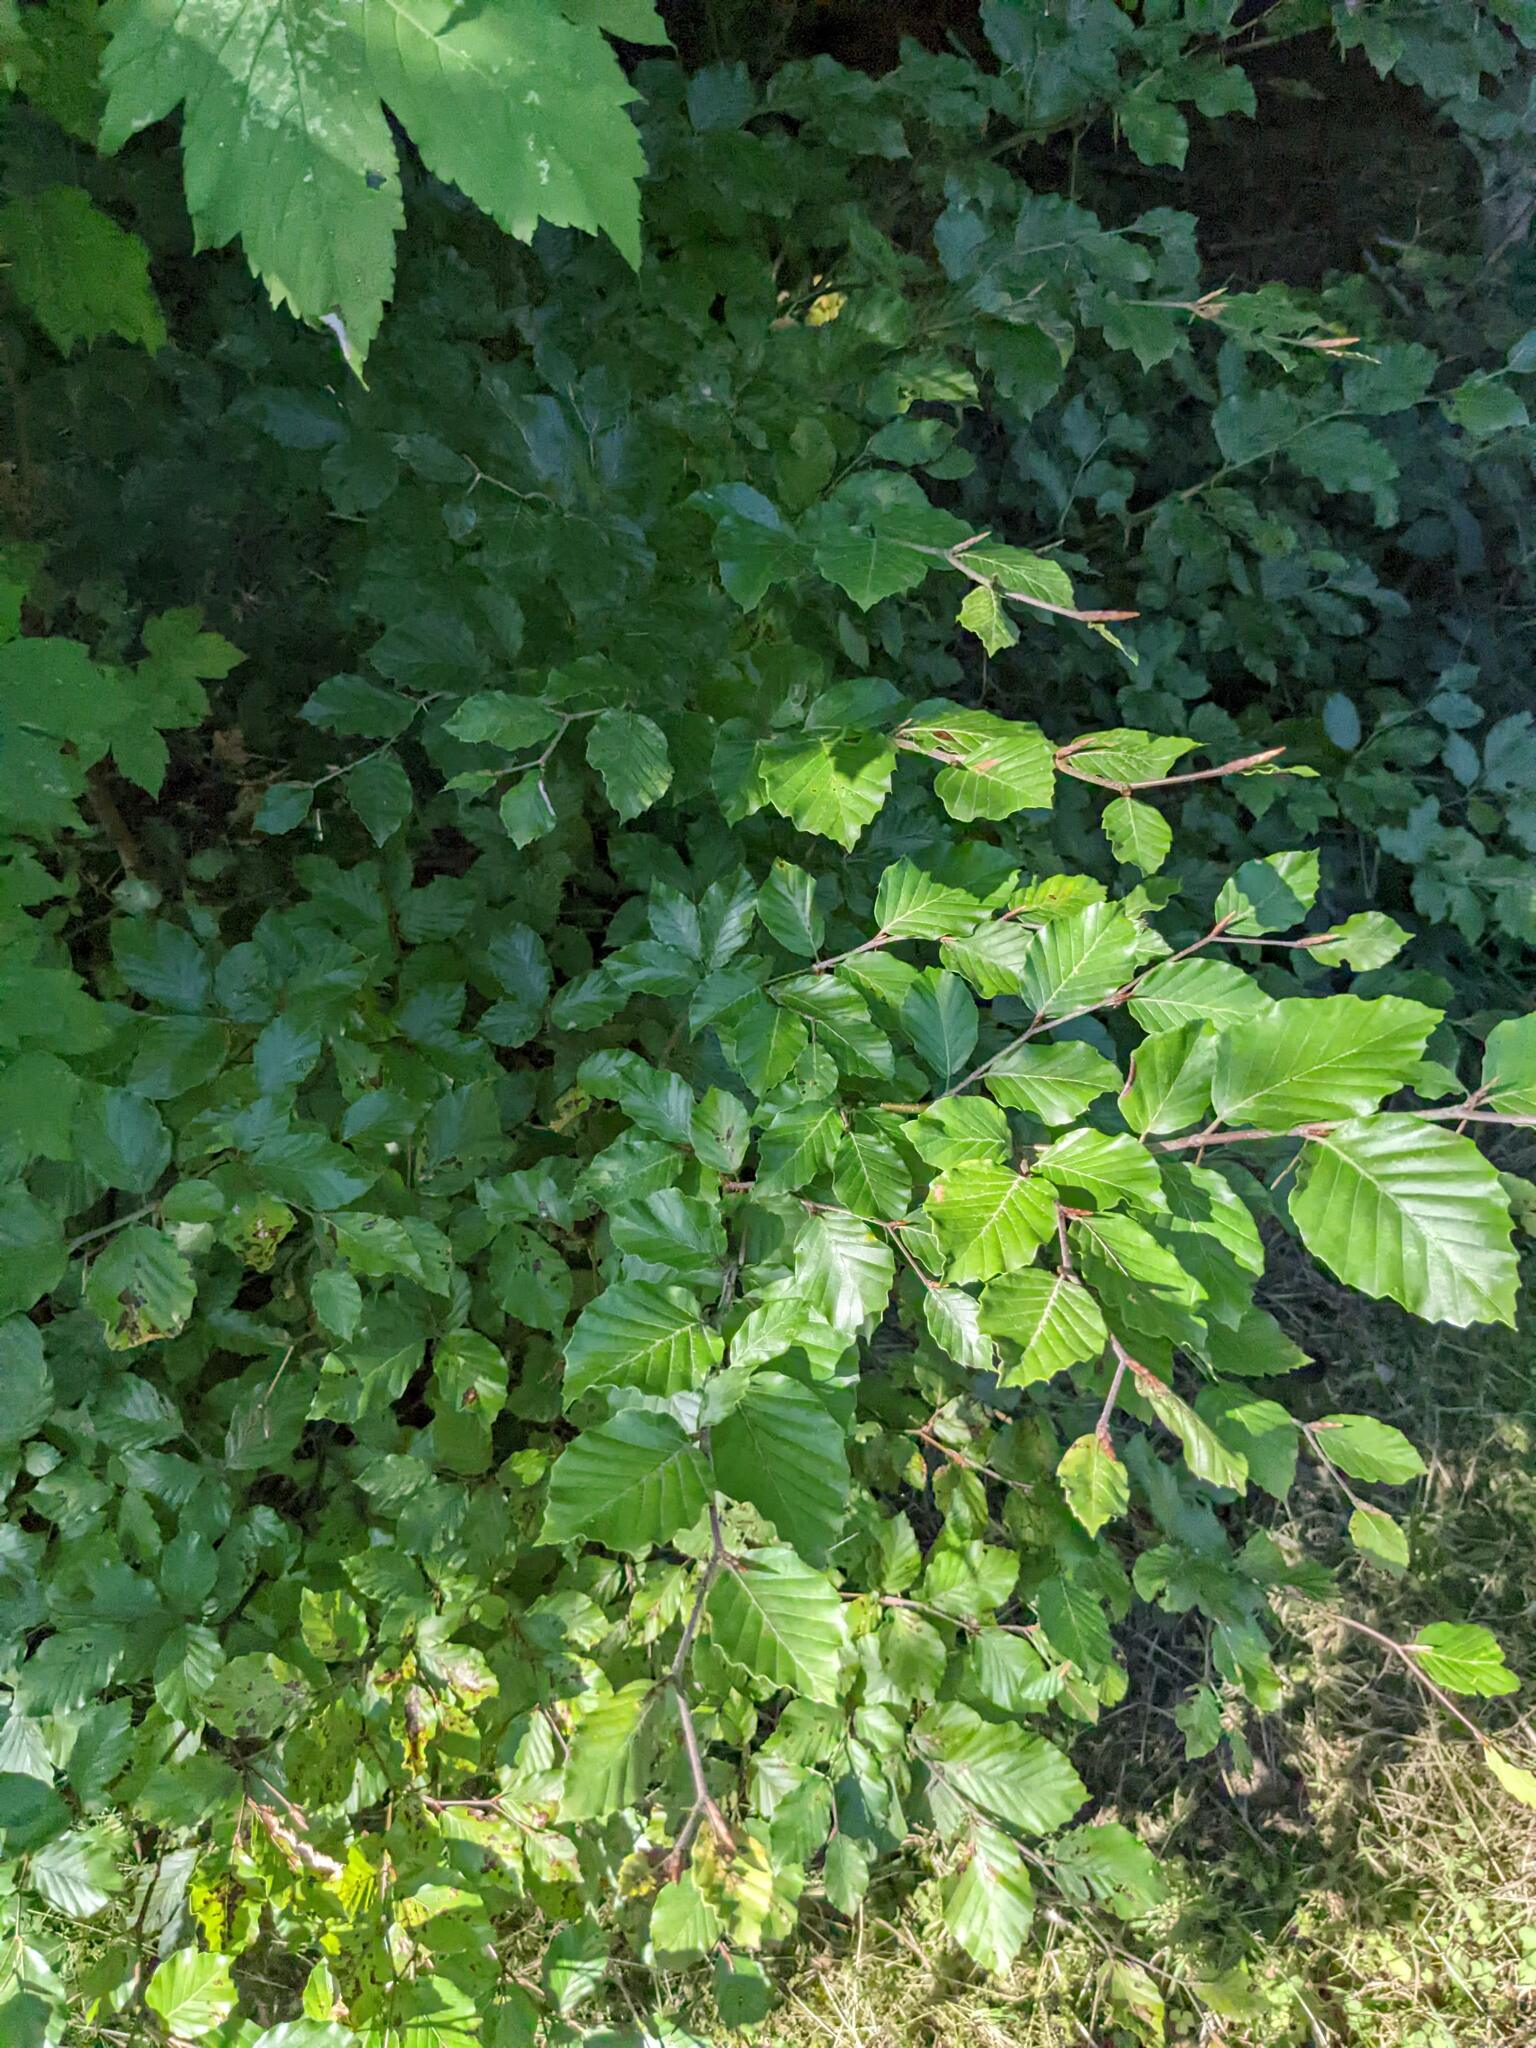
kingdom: Plantae
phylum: Tracheophyta
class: Magnoliopsida
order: Fagales
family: Fagaceae
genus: Fagus
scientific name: Fagus sylvatica
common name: Beech
